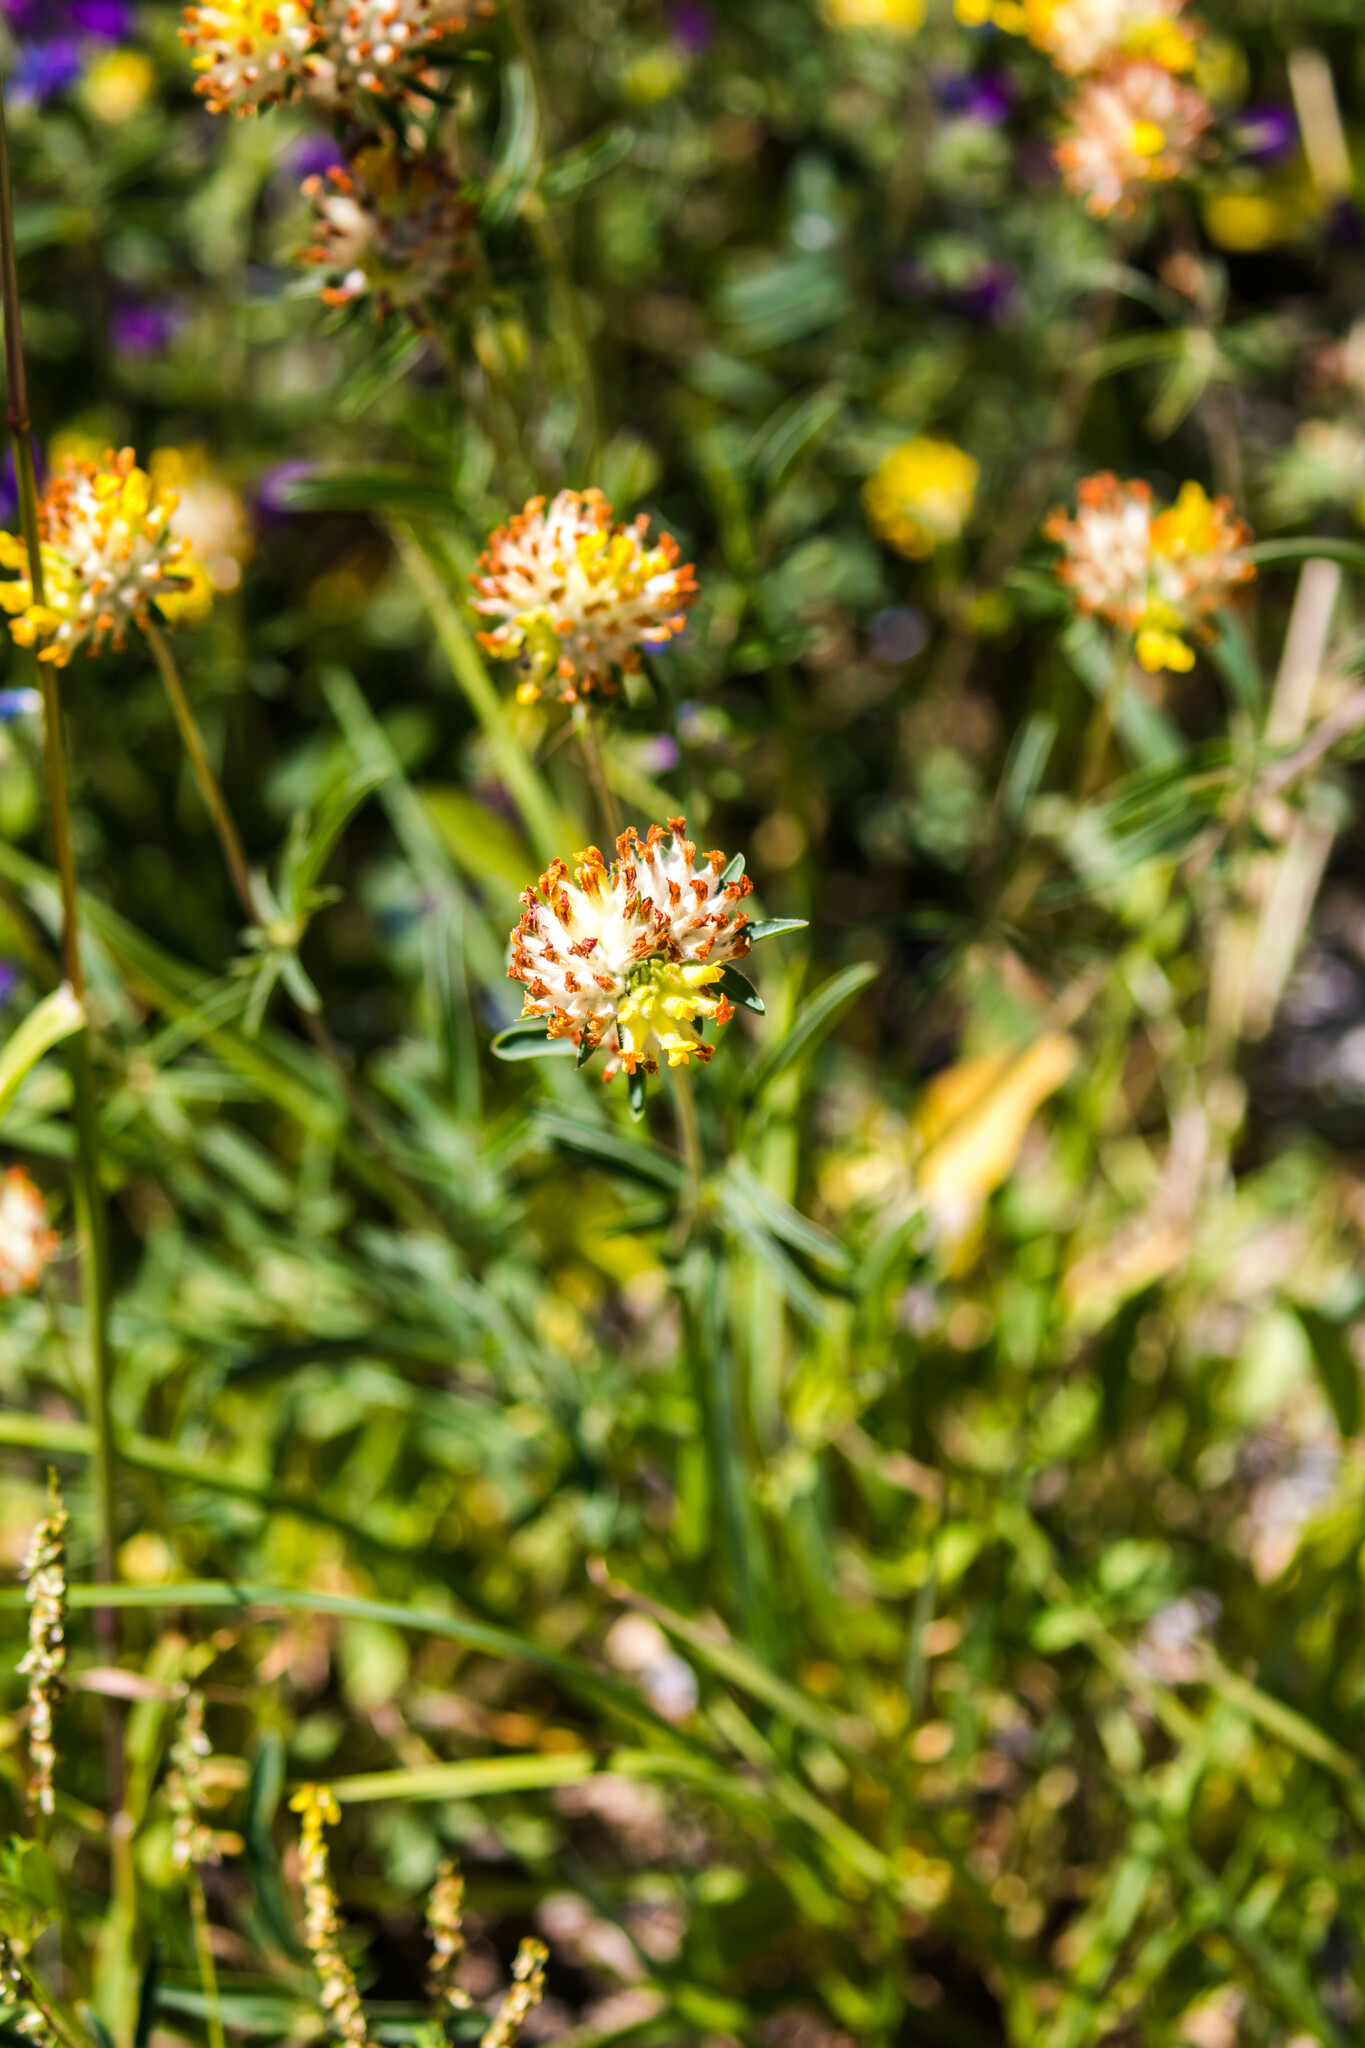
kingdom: Plantae
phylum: Tracheophyta
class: Magnoliopsida
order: Fabales
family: Fabaceae
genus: Anthyllis
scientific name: Anthyllis vulneraria
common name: Kidney vetch
